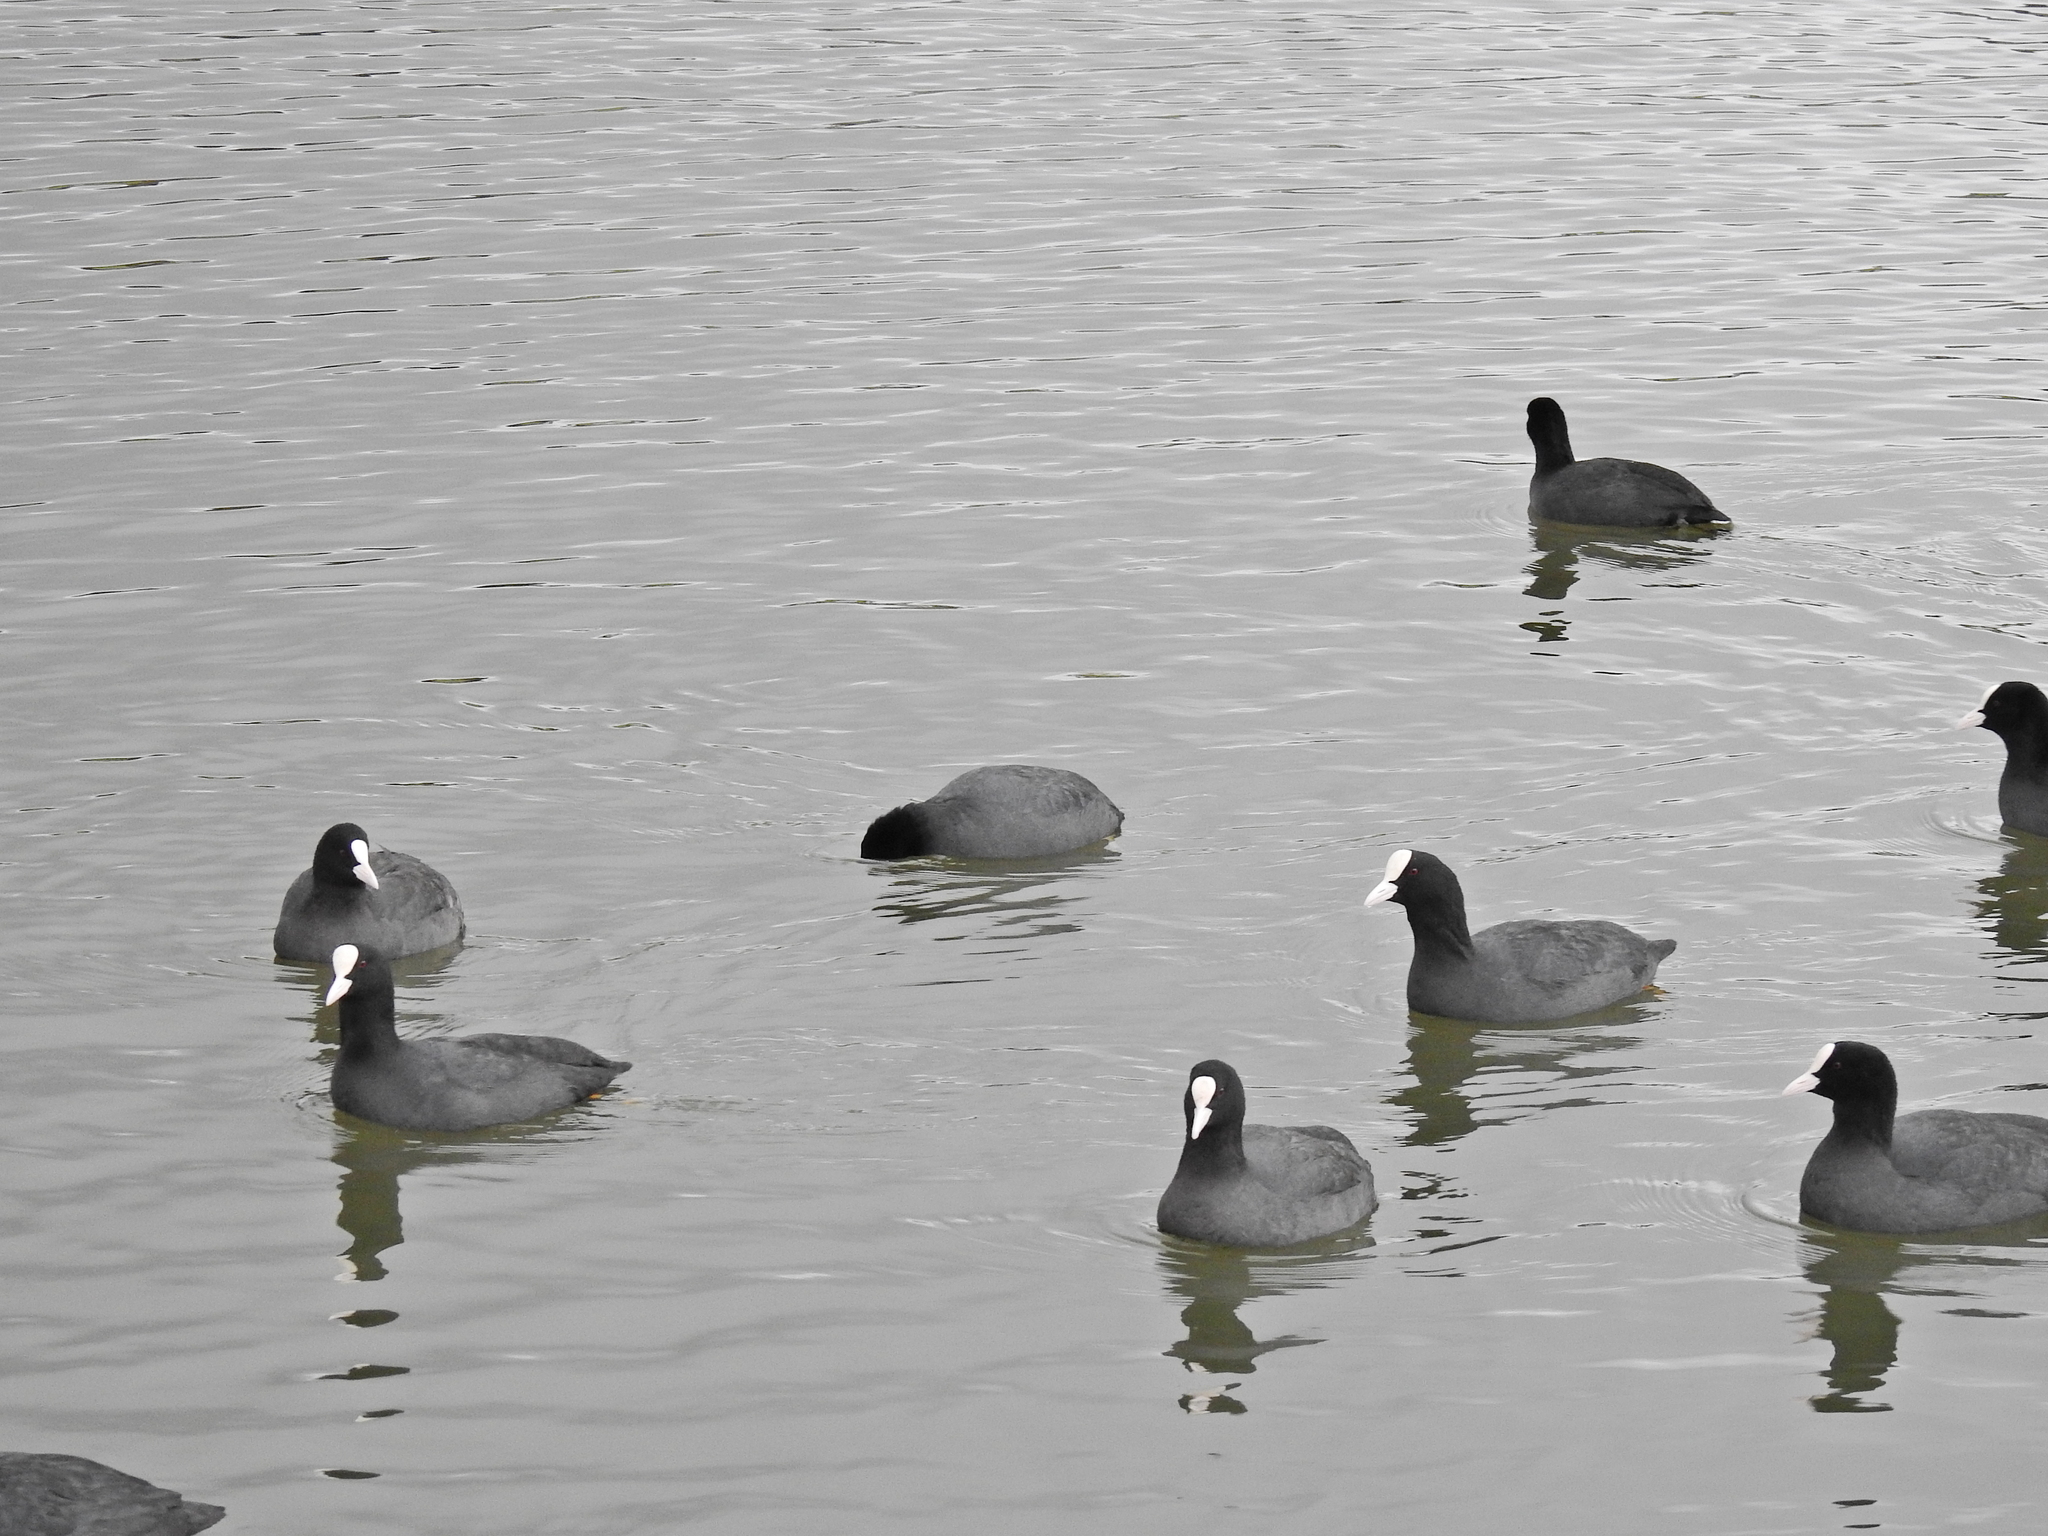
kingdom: Animalia
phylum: Chordata
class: Aves
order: Gruiformes
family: Rallidae
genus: Fulica
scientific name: Fulica atra
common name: Eurasian coot
